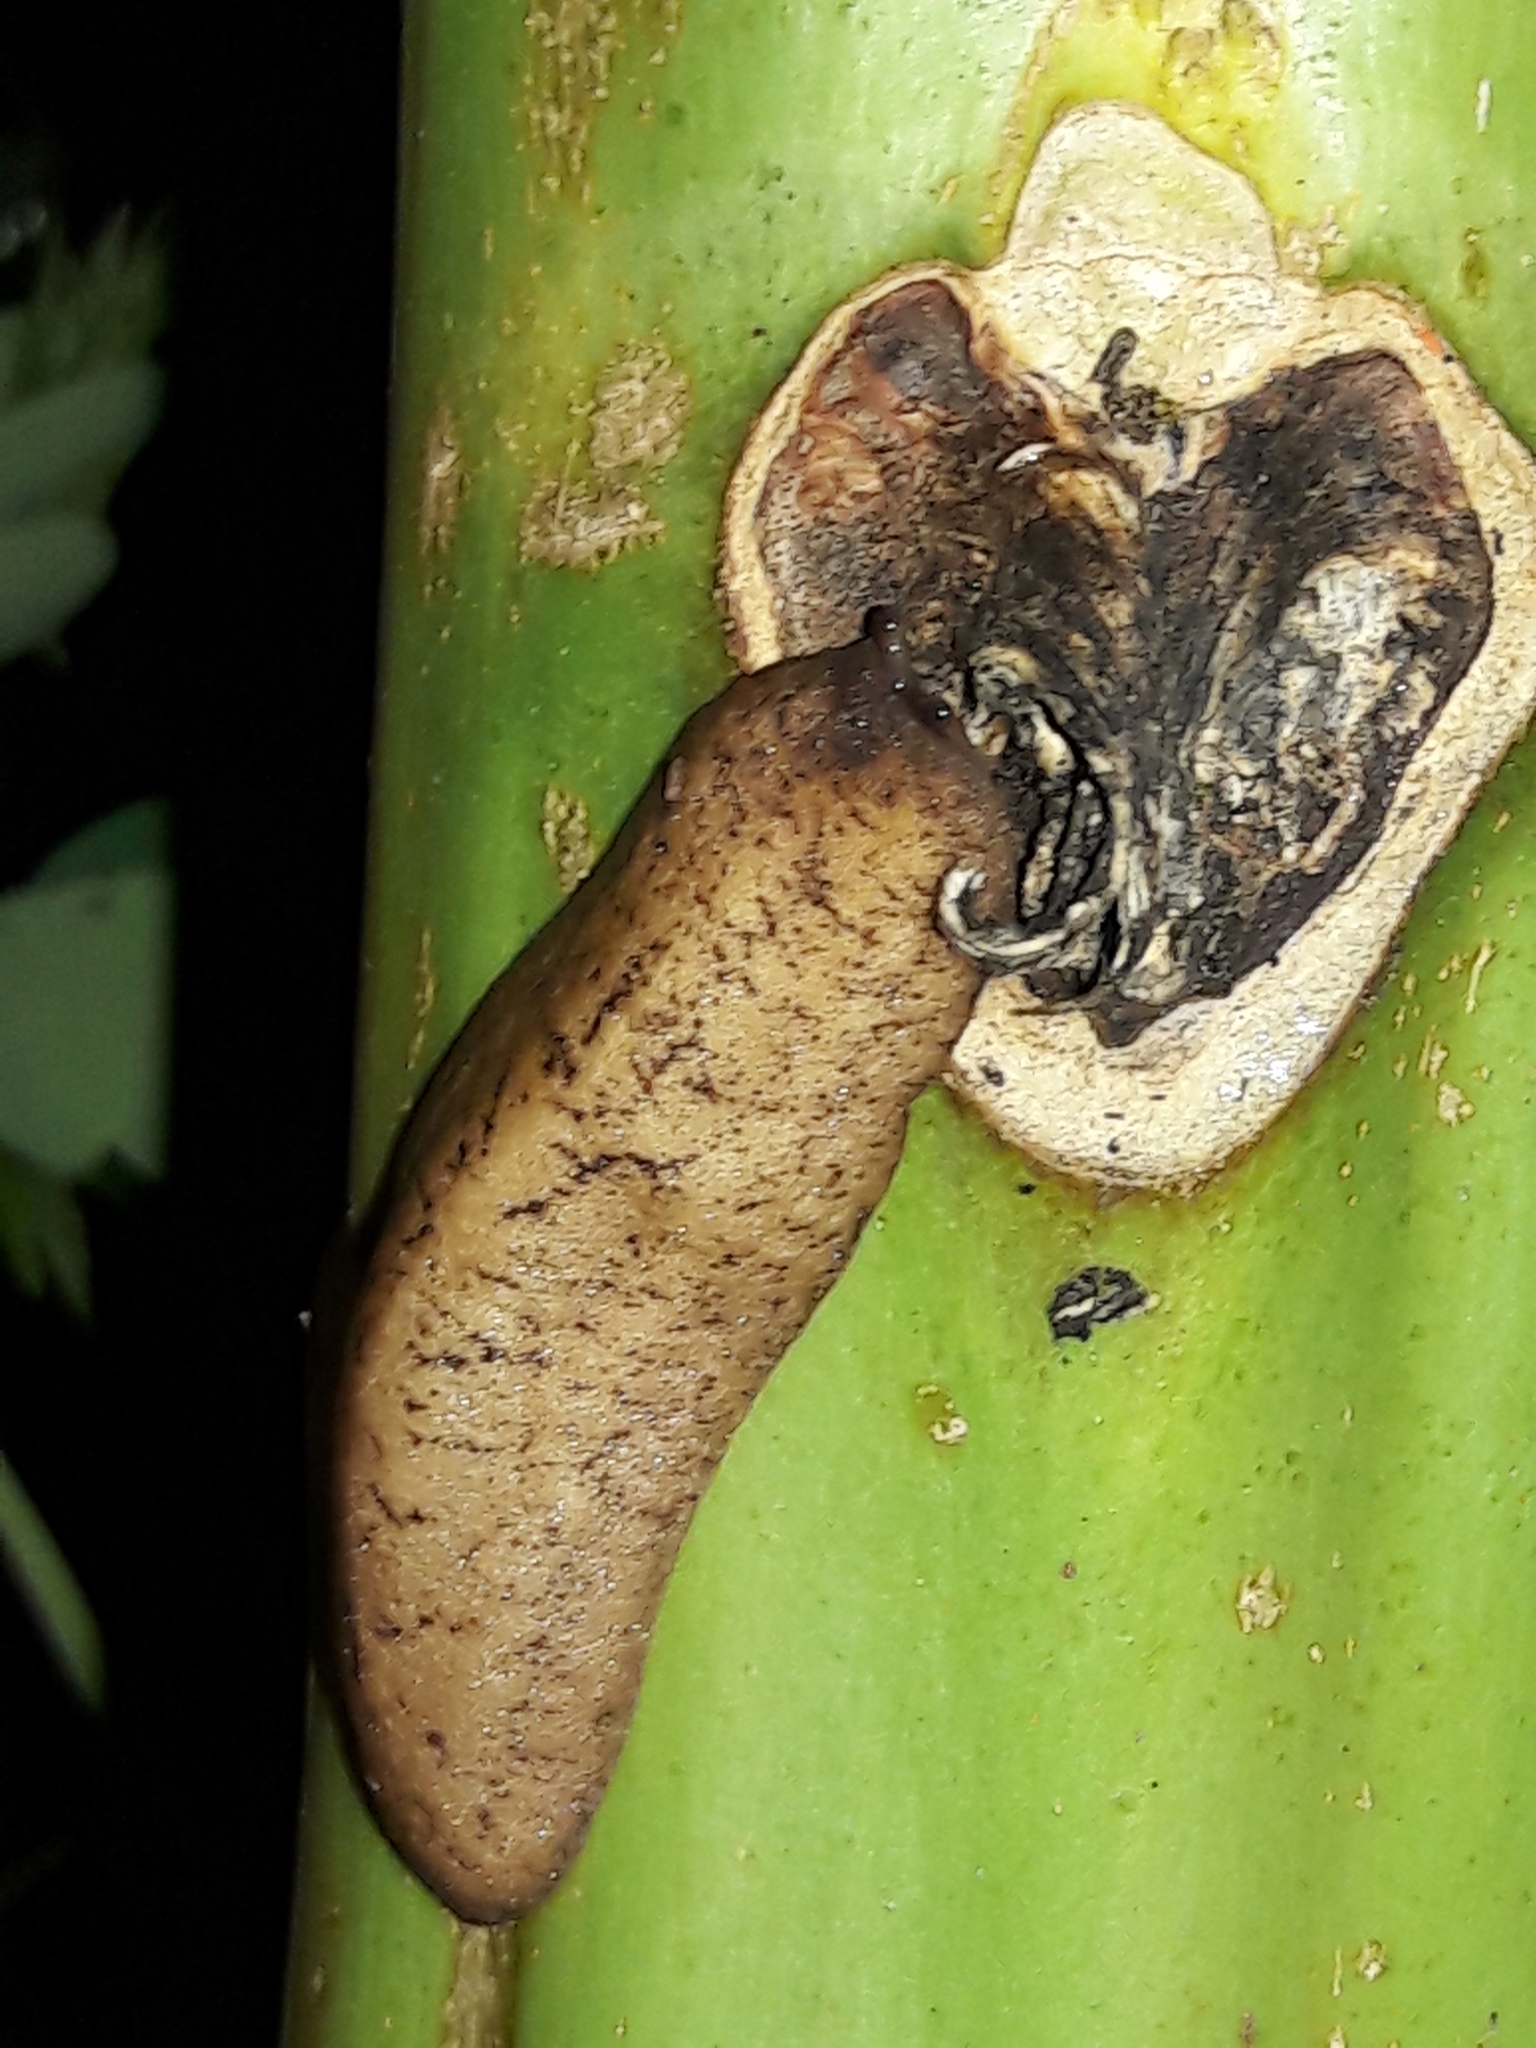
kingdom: Animalia
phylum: Mollusca
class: Gastropoda
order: Systellommatophora
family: Veronicellidae
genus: Sarasinula
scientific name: Sarasinula linguaeformis
